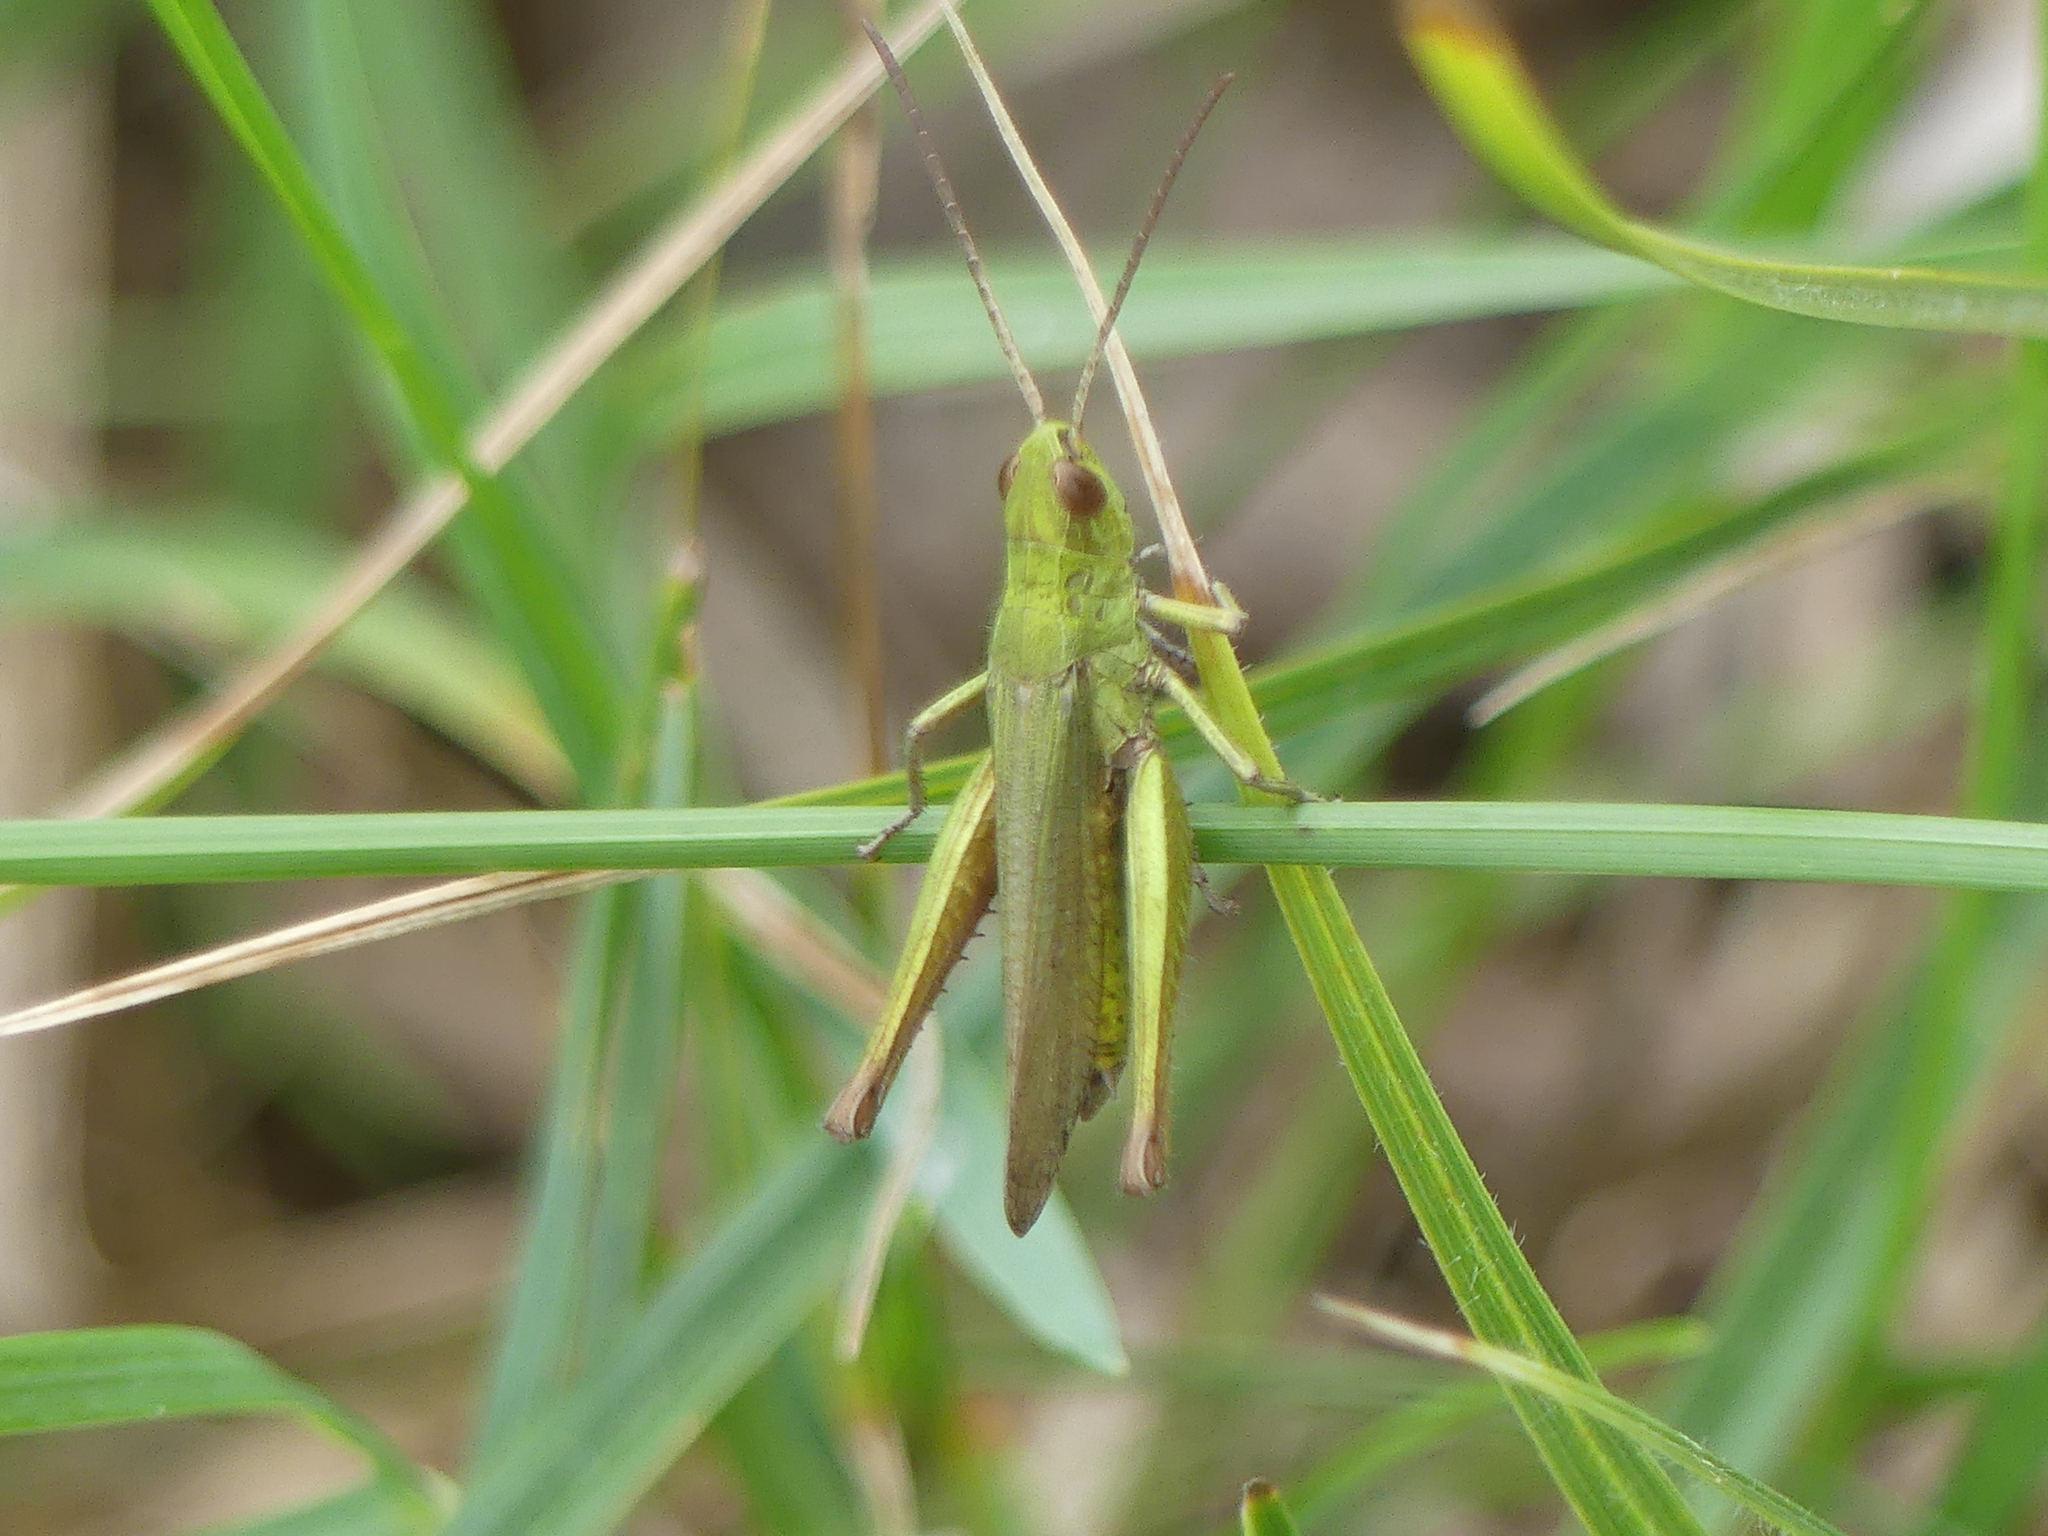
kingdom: Animalia
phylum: Arthropoda
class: Insecta
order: Orthoptera
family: Acrididae
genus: Chorthippus
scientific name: Chorthippus dorsatus
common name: Steppe grasshopper
